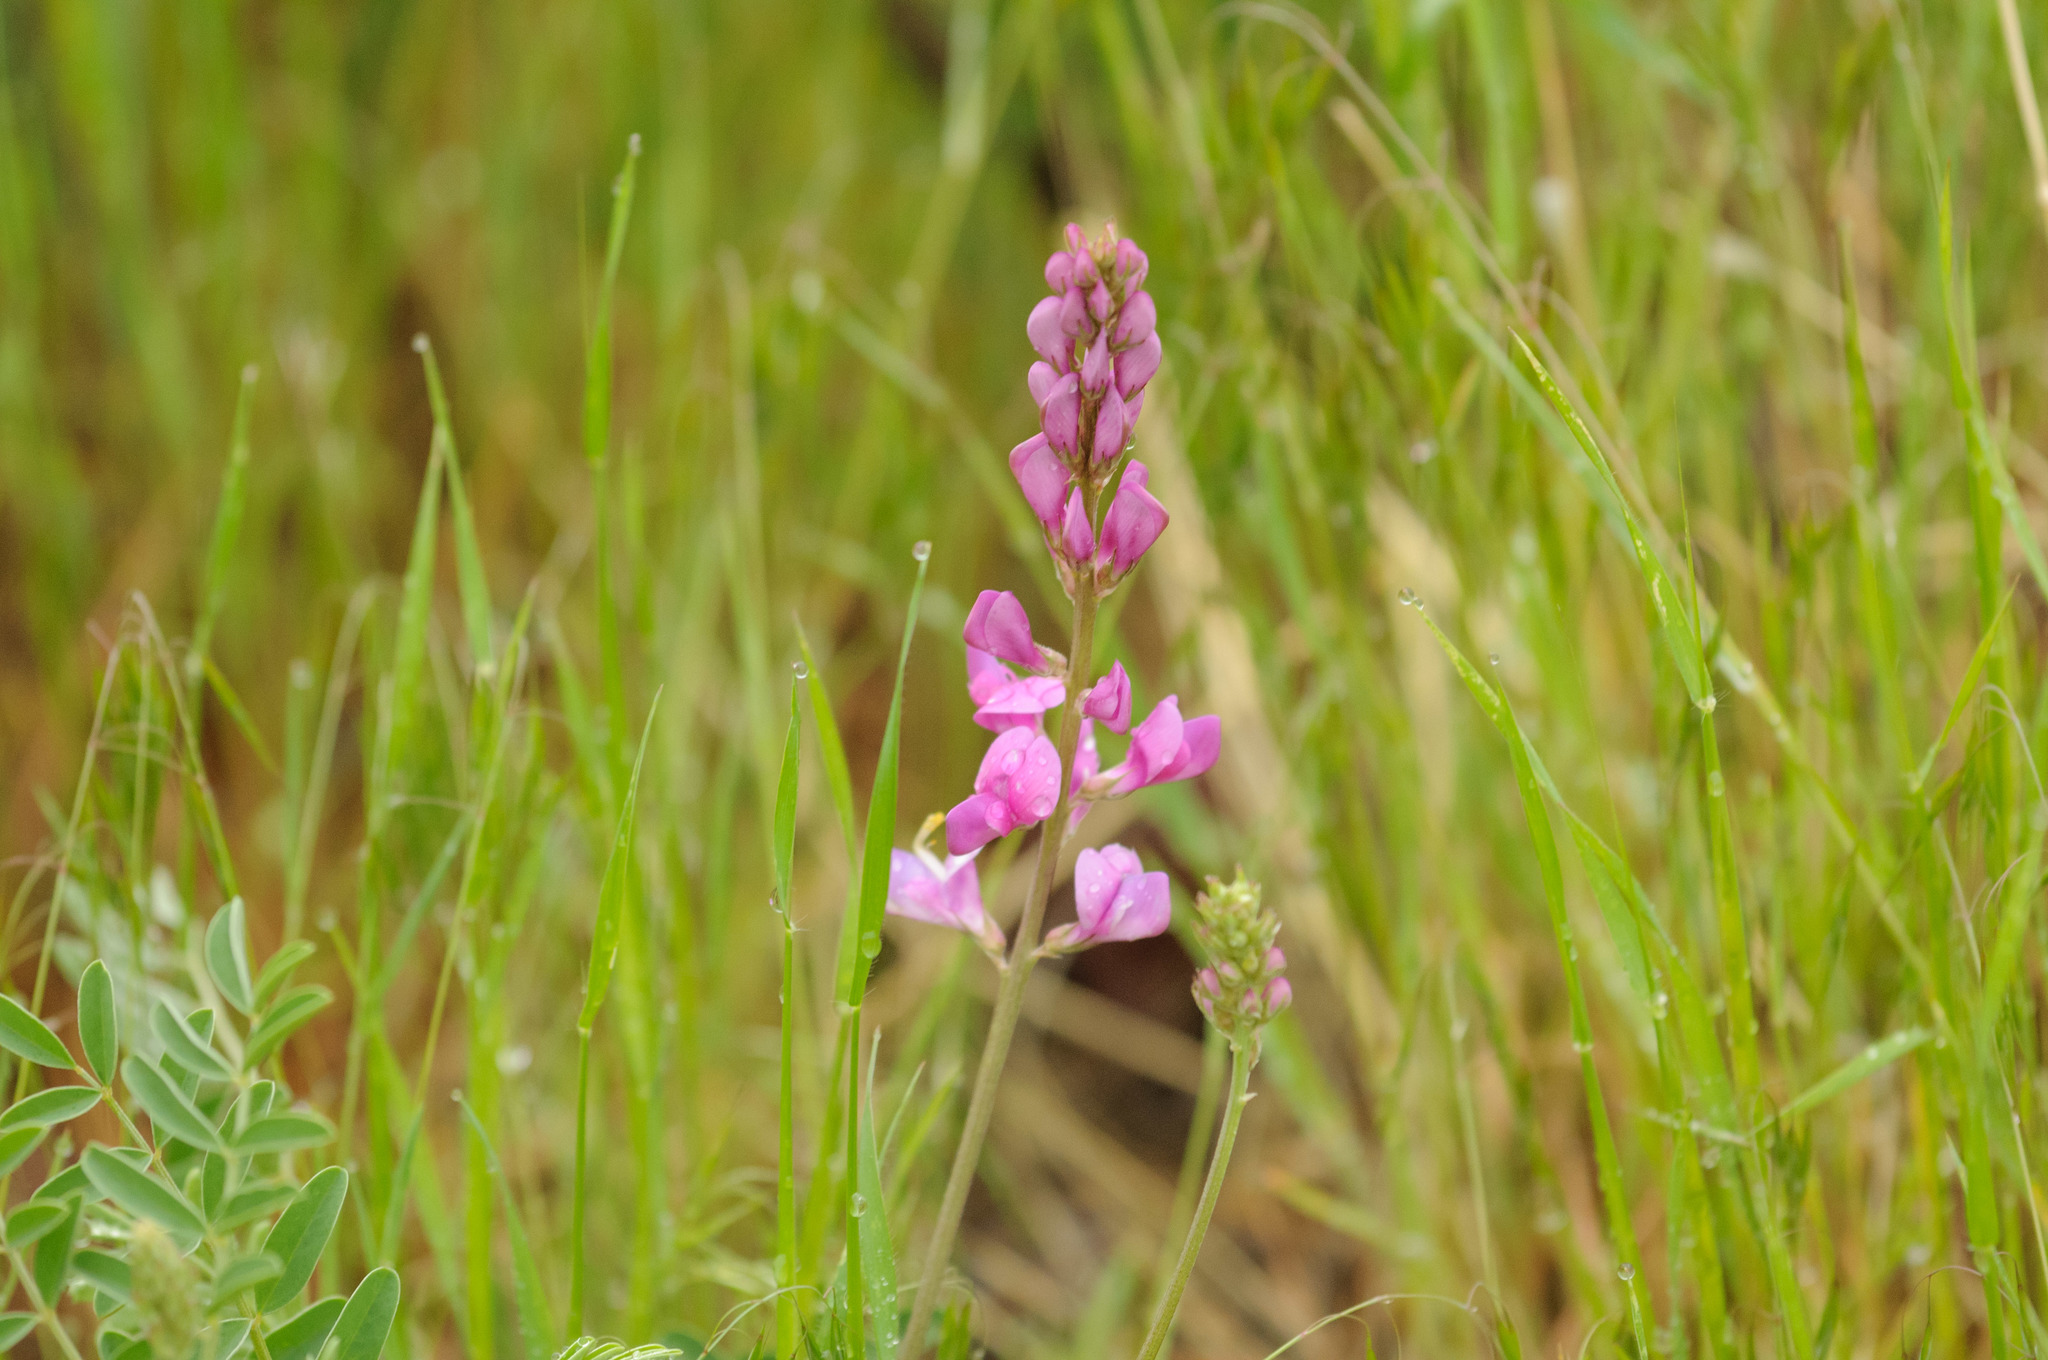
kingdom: Plantae
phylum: Tracheophyta
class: Magnoliopsida
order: Fabales
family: Fabaceae
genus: Hedysarum
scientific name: Hedysarum boreale
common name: Northern sweet-vetch
